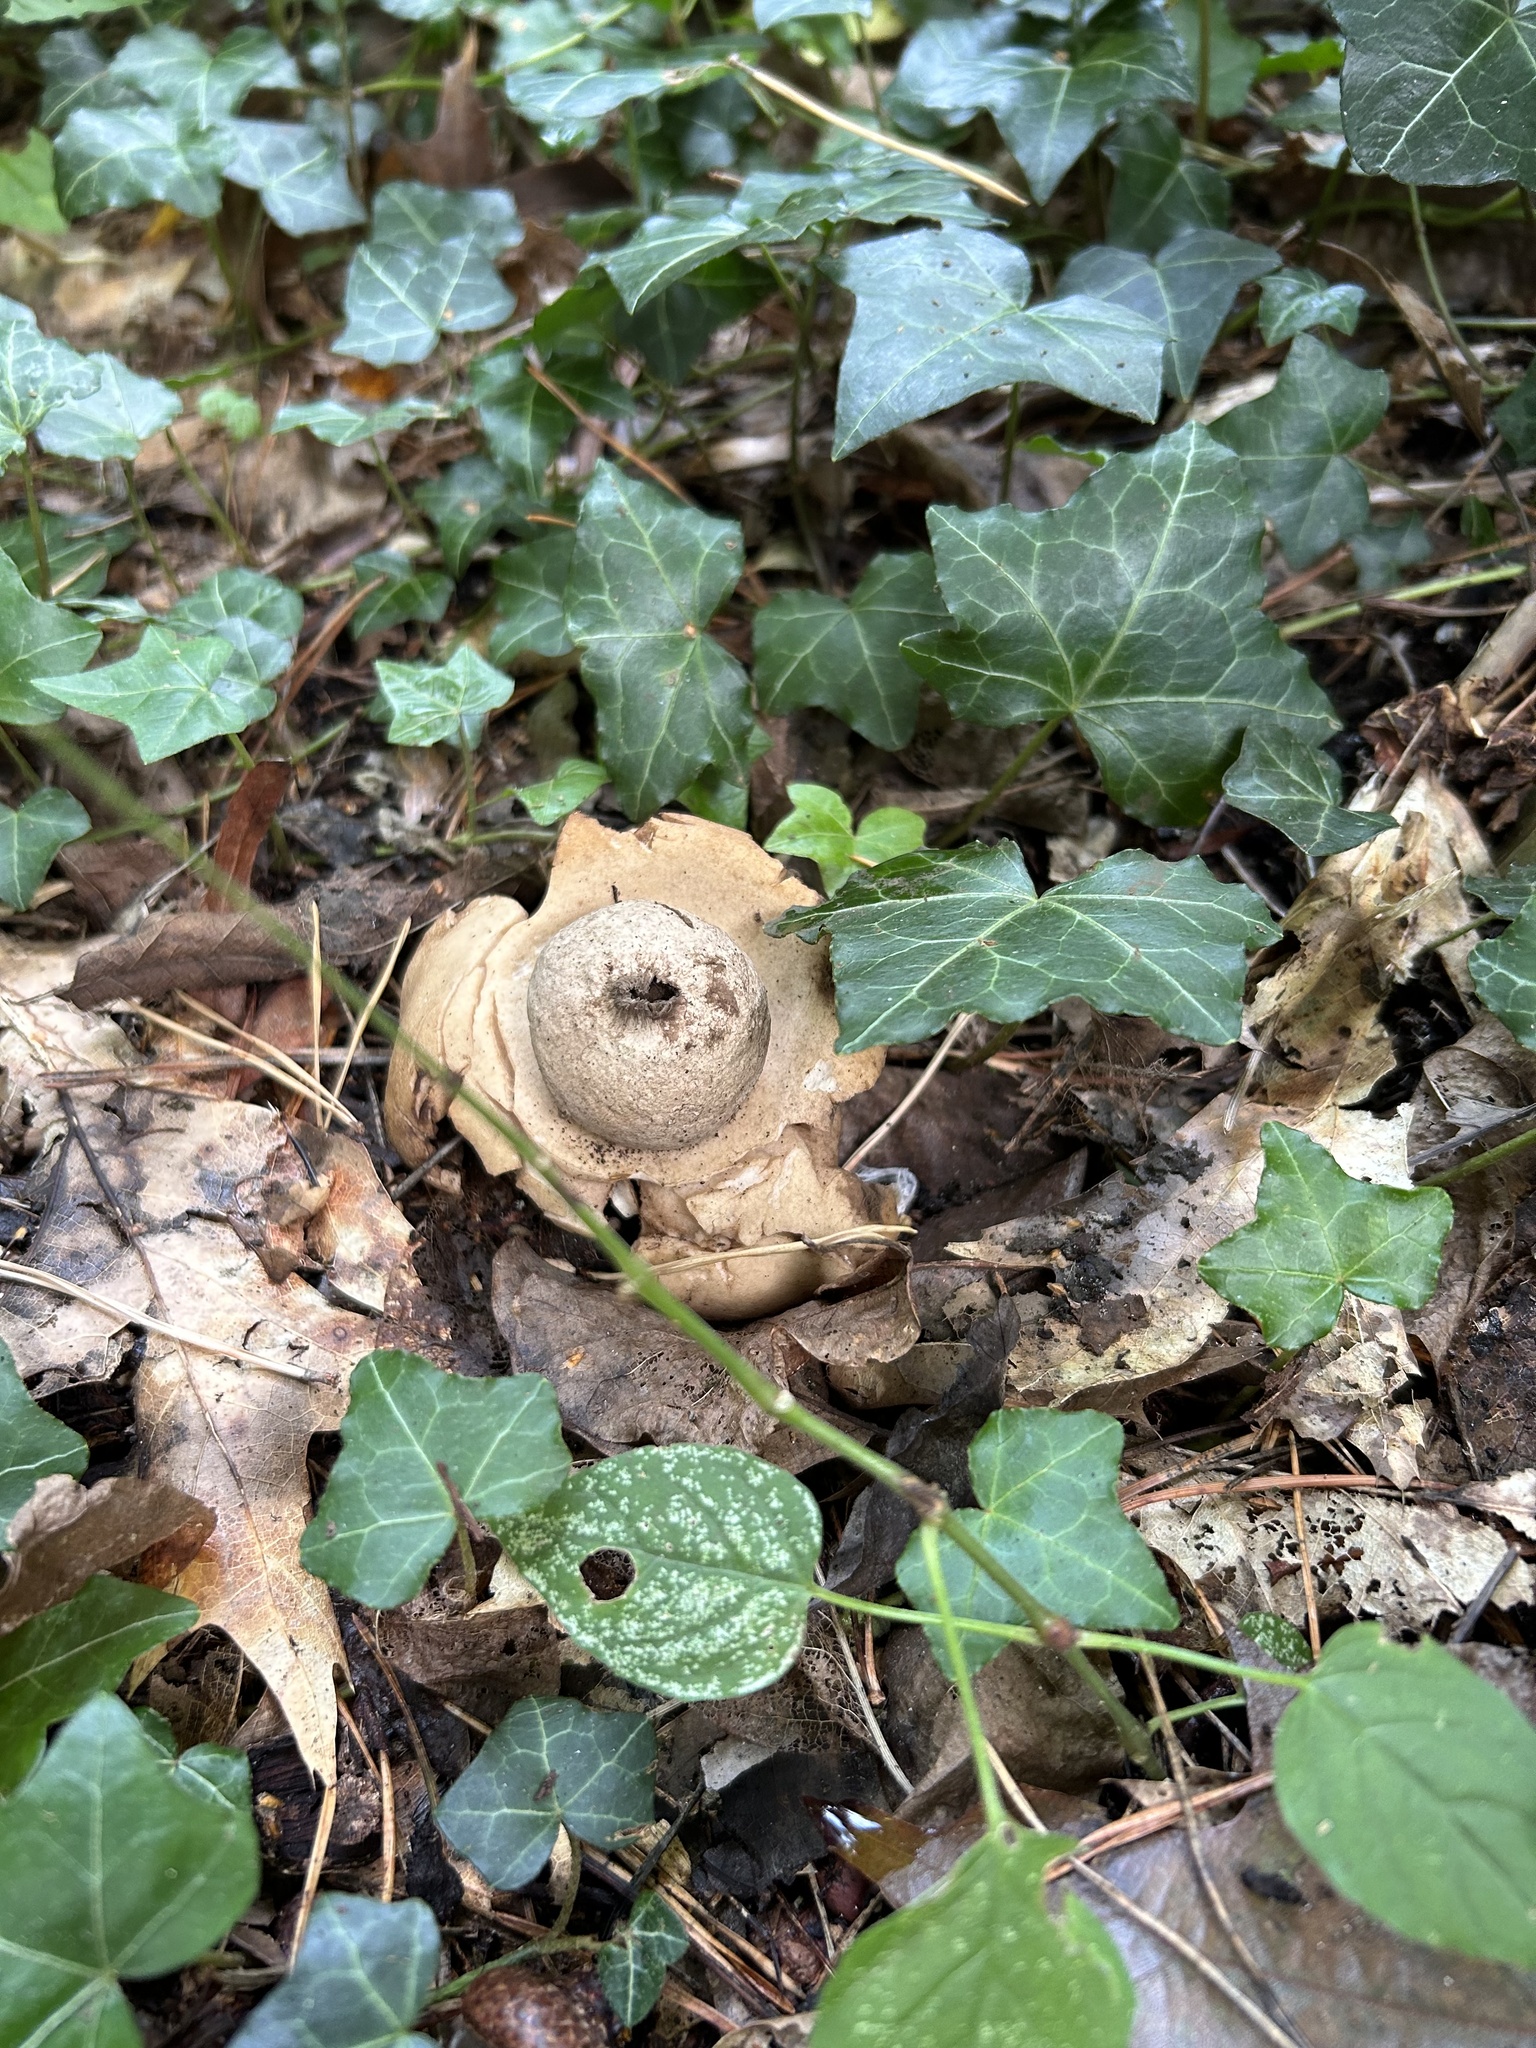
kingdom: Fungi
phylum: Basidiomycota
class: Agaricomycetes
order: Geastrales
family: Geastraceae
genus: Geastrum
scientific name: Geastrum triplex
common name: Collared earthstar
